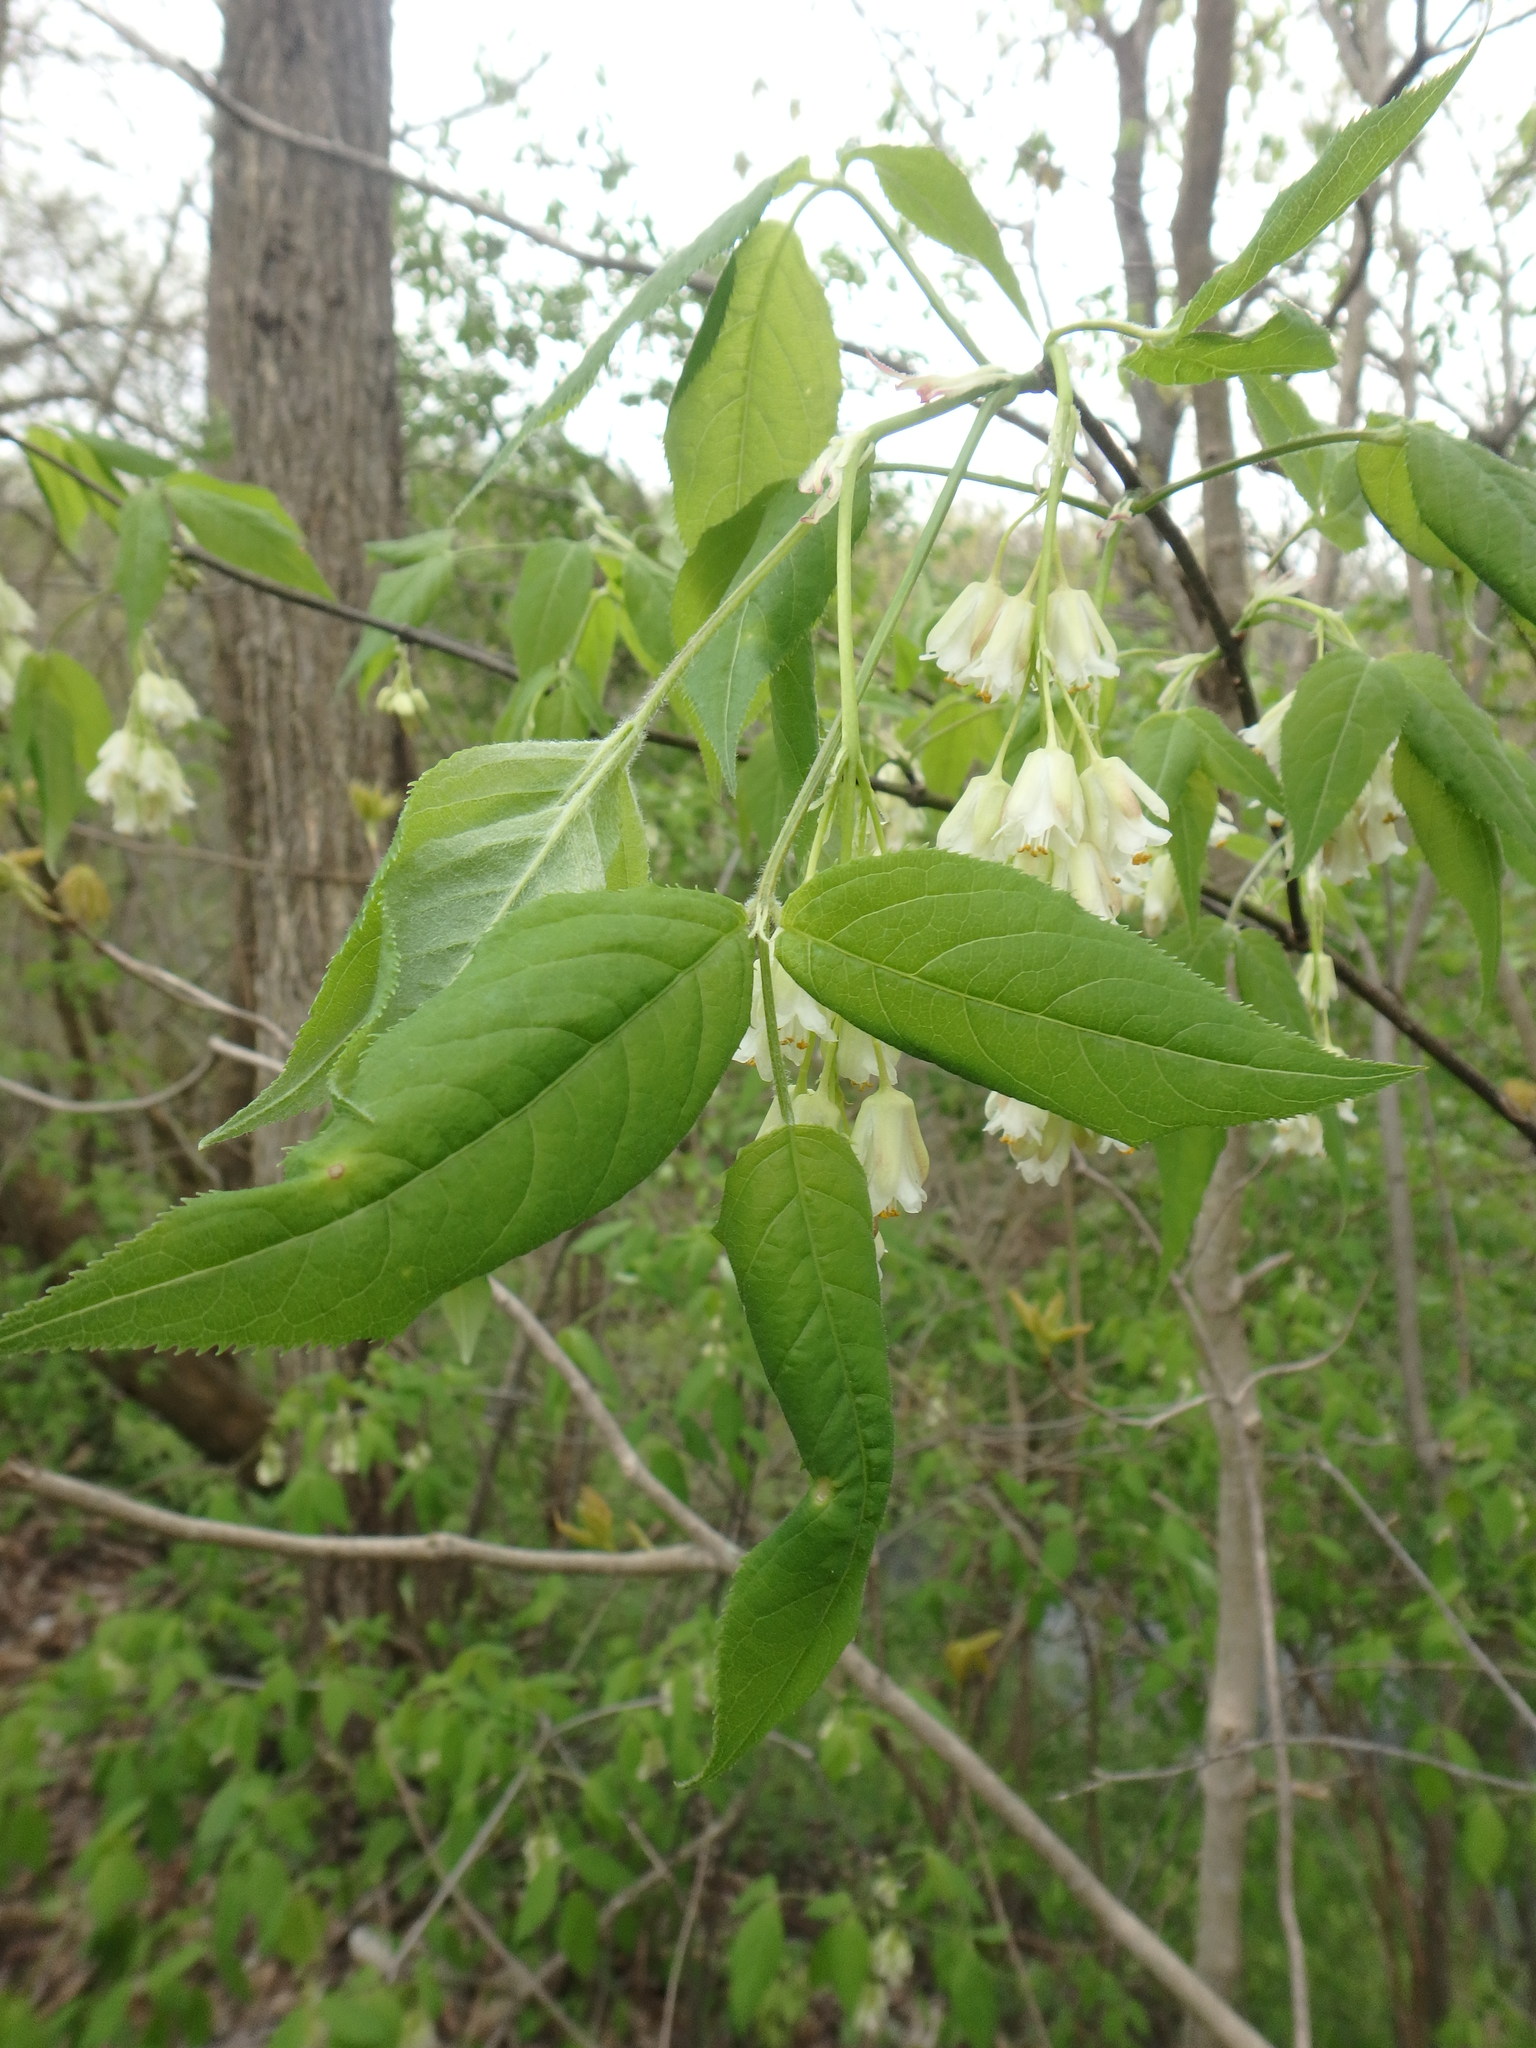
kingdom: Plantae
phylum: Tracheophyta
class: Magnoliopsida
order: Crossosomatales
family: Staphyleaceae
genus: Staphylea
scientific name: Staphylea trifolia
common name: American bladdernut
